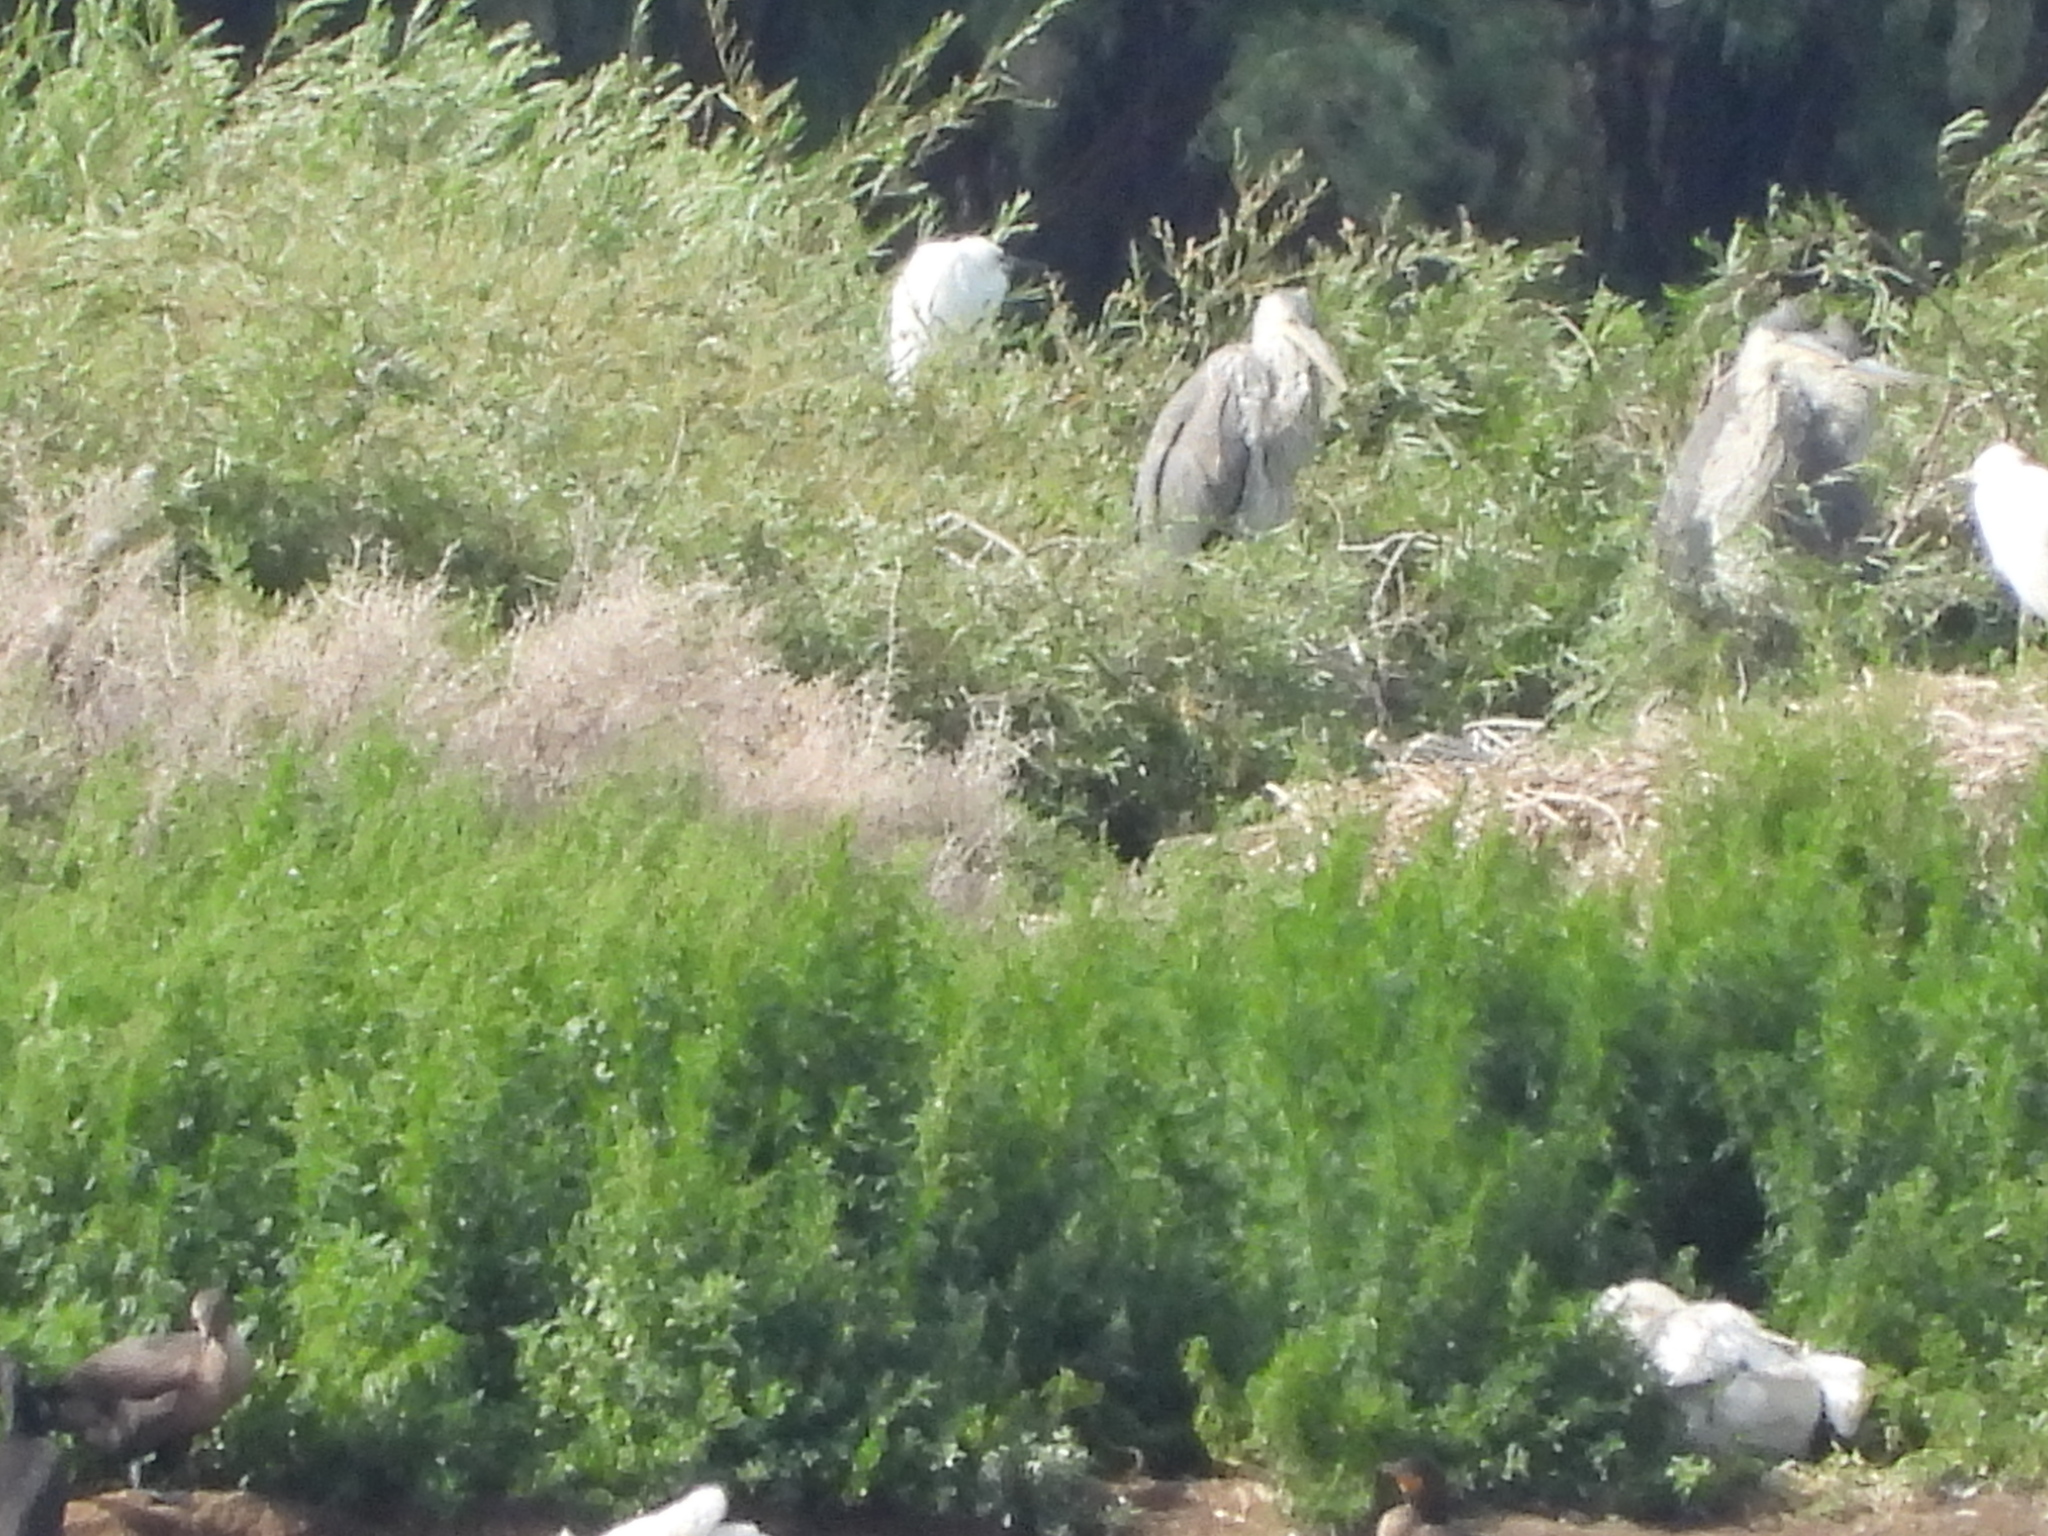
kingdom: Animalia
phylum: Chordata
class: Aves
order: Pelecaniformes
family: Ardeidae
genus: Ardea
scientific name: Ardea herodias
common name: Great blue heron
